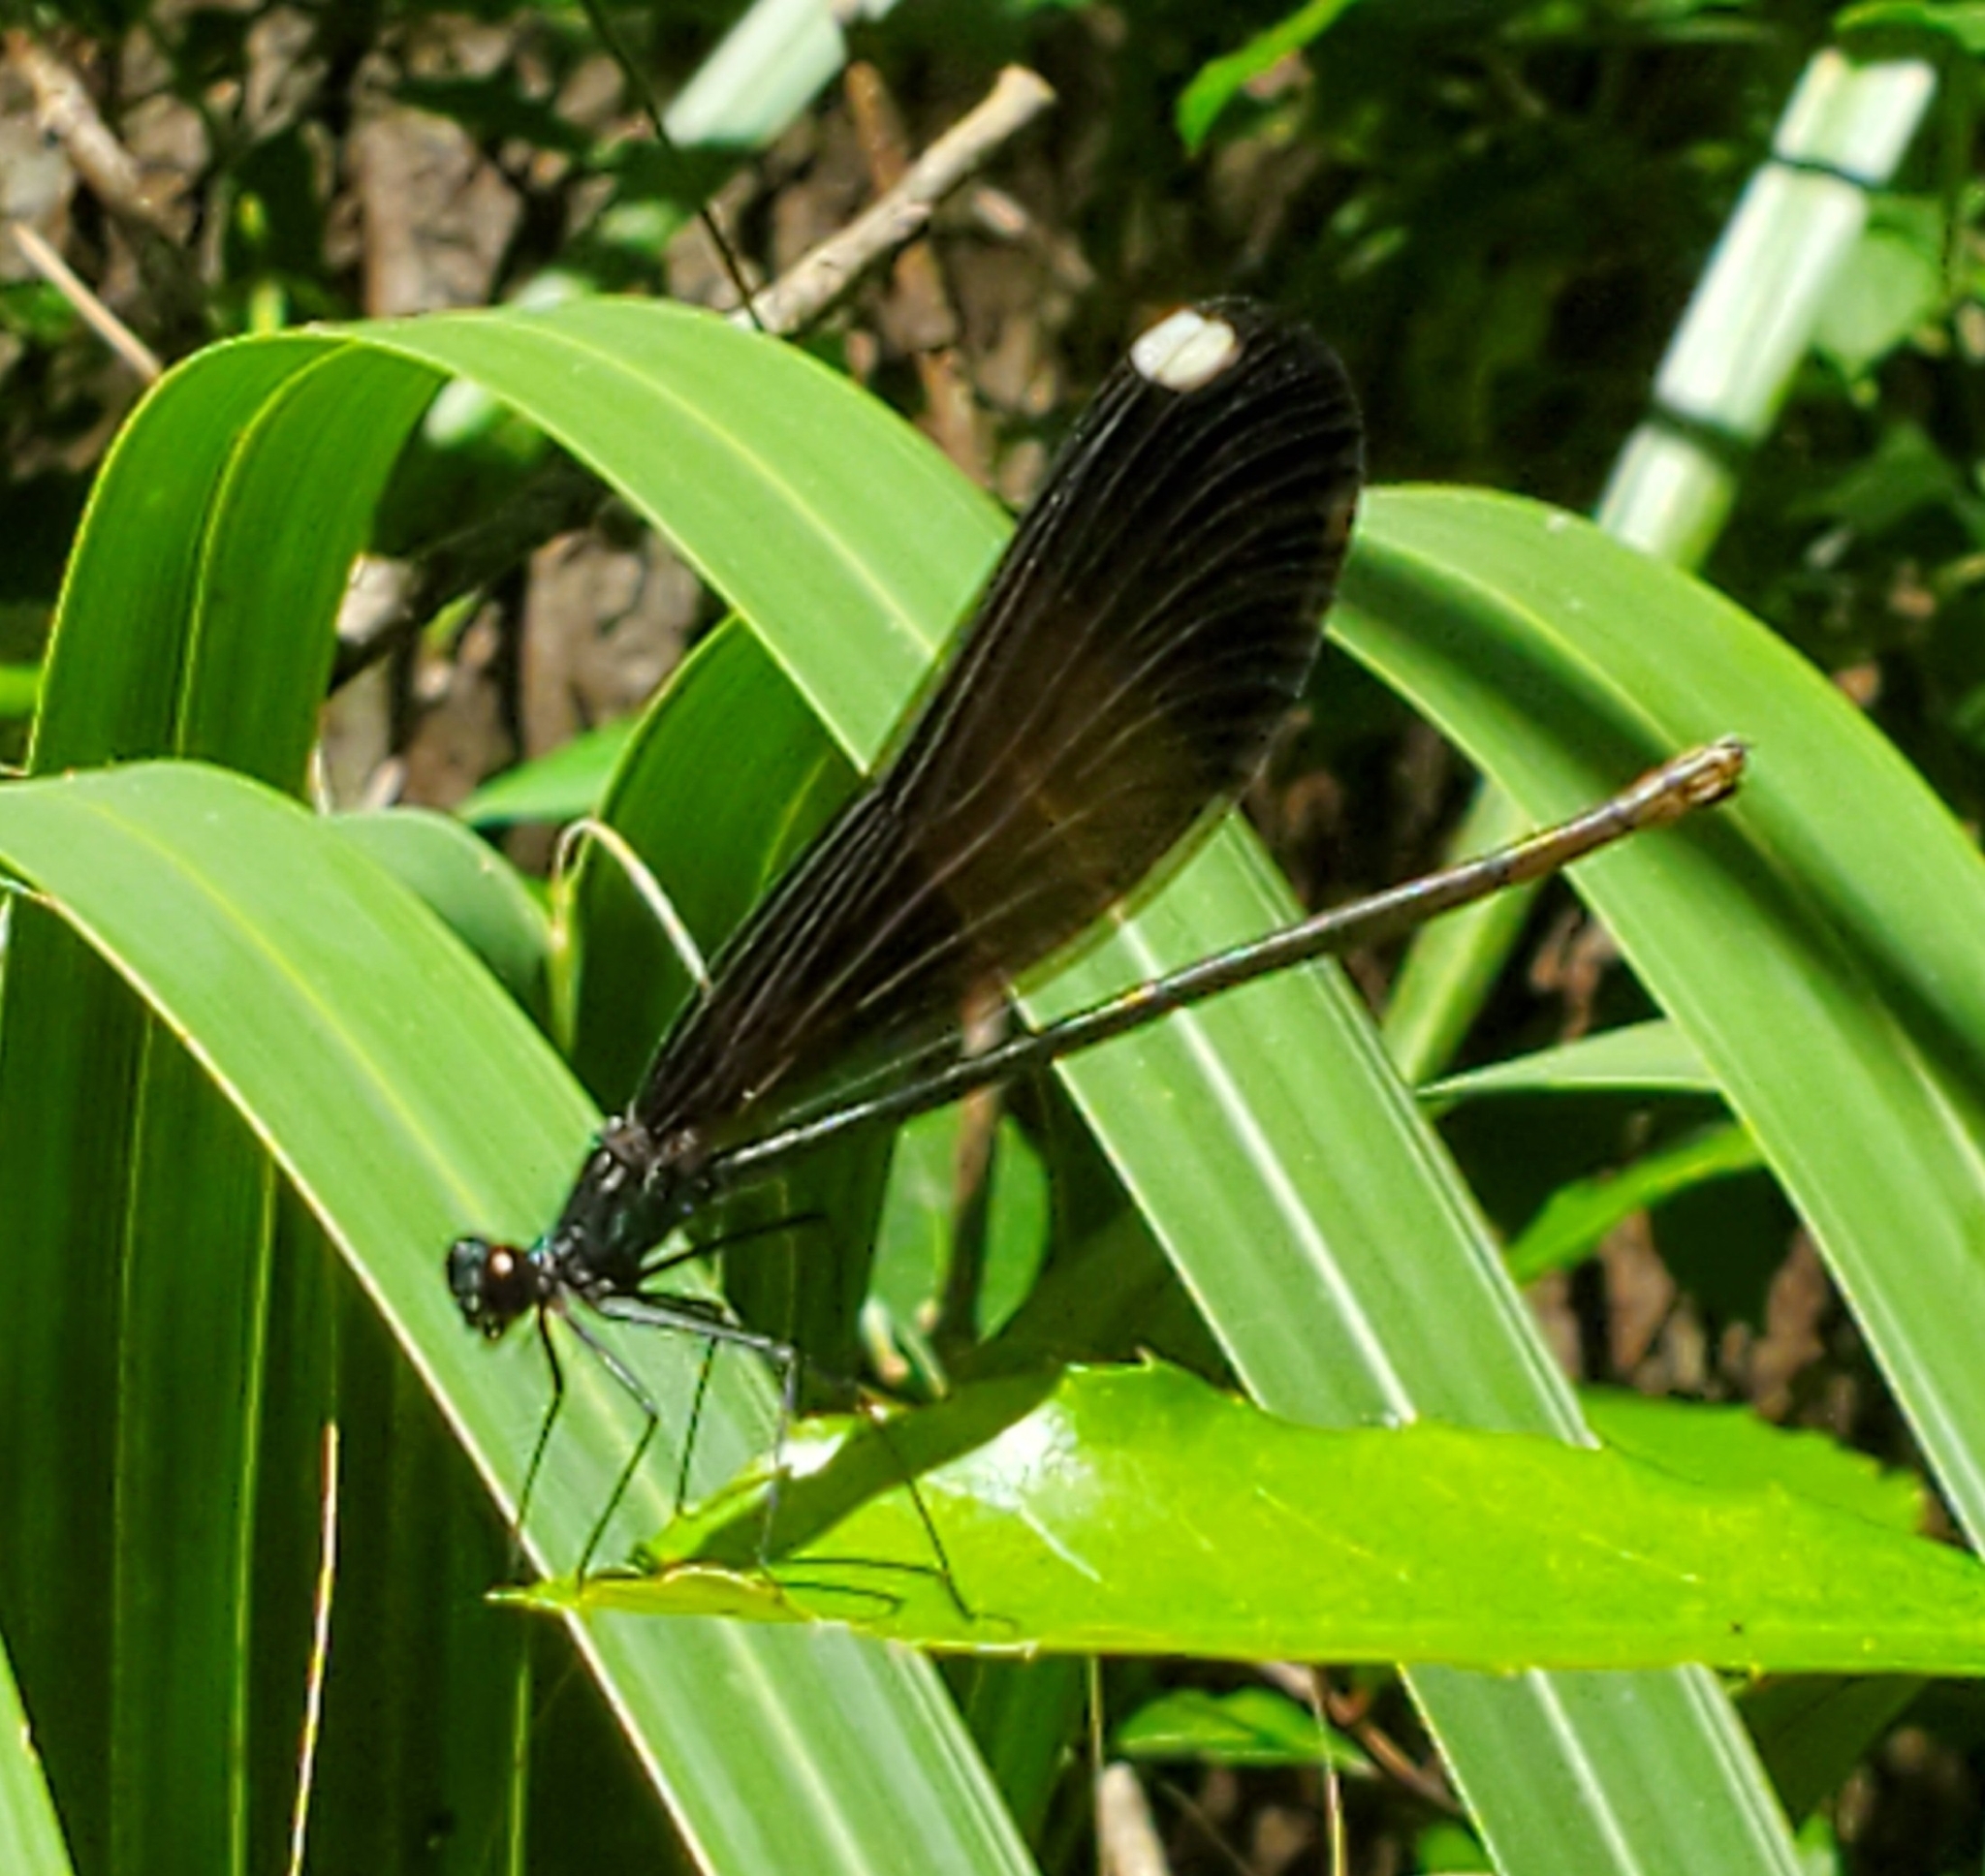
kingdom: Animalia
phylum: Arthropoda
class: Insecta
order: Odonata
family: Calopterygidae
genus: Calopteryx
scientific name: Calopteryx maculata
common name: Ebony jewelwing
